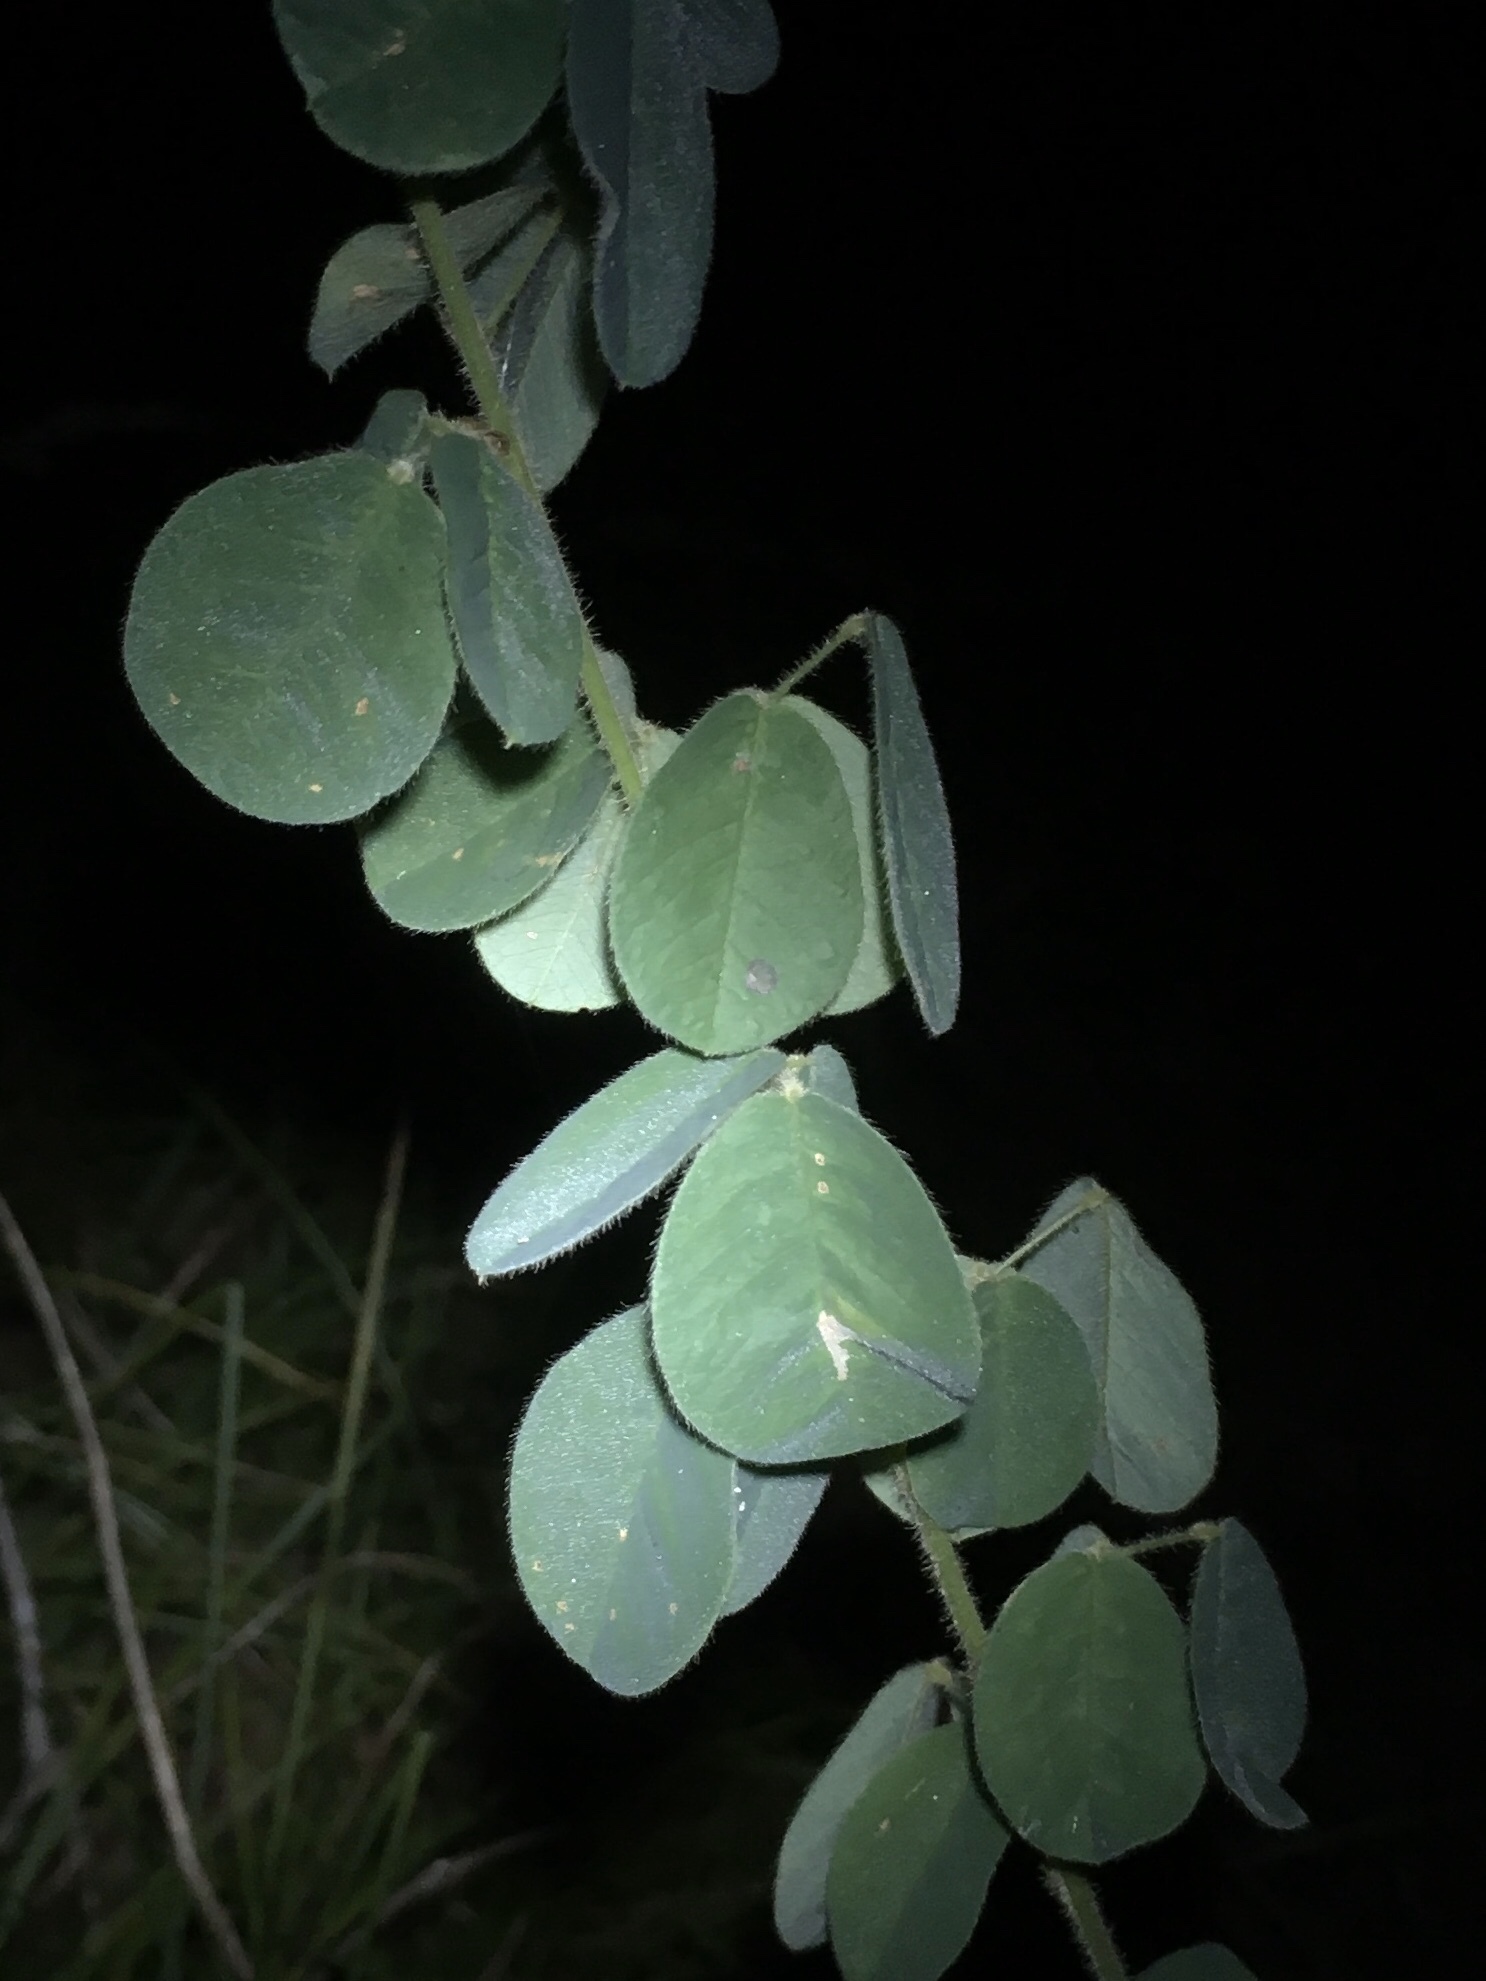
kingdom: Plantae
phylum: Tracheophyta
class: Magnoliopsida
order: Fabales
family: Fabaceae
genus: Lespedeza
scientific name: Lespedeza hirta
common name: Hairy lespedeza
